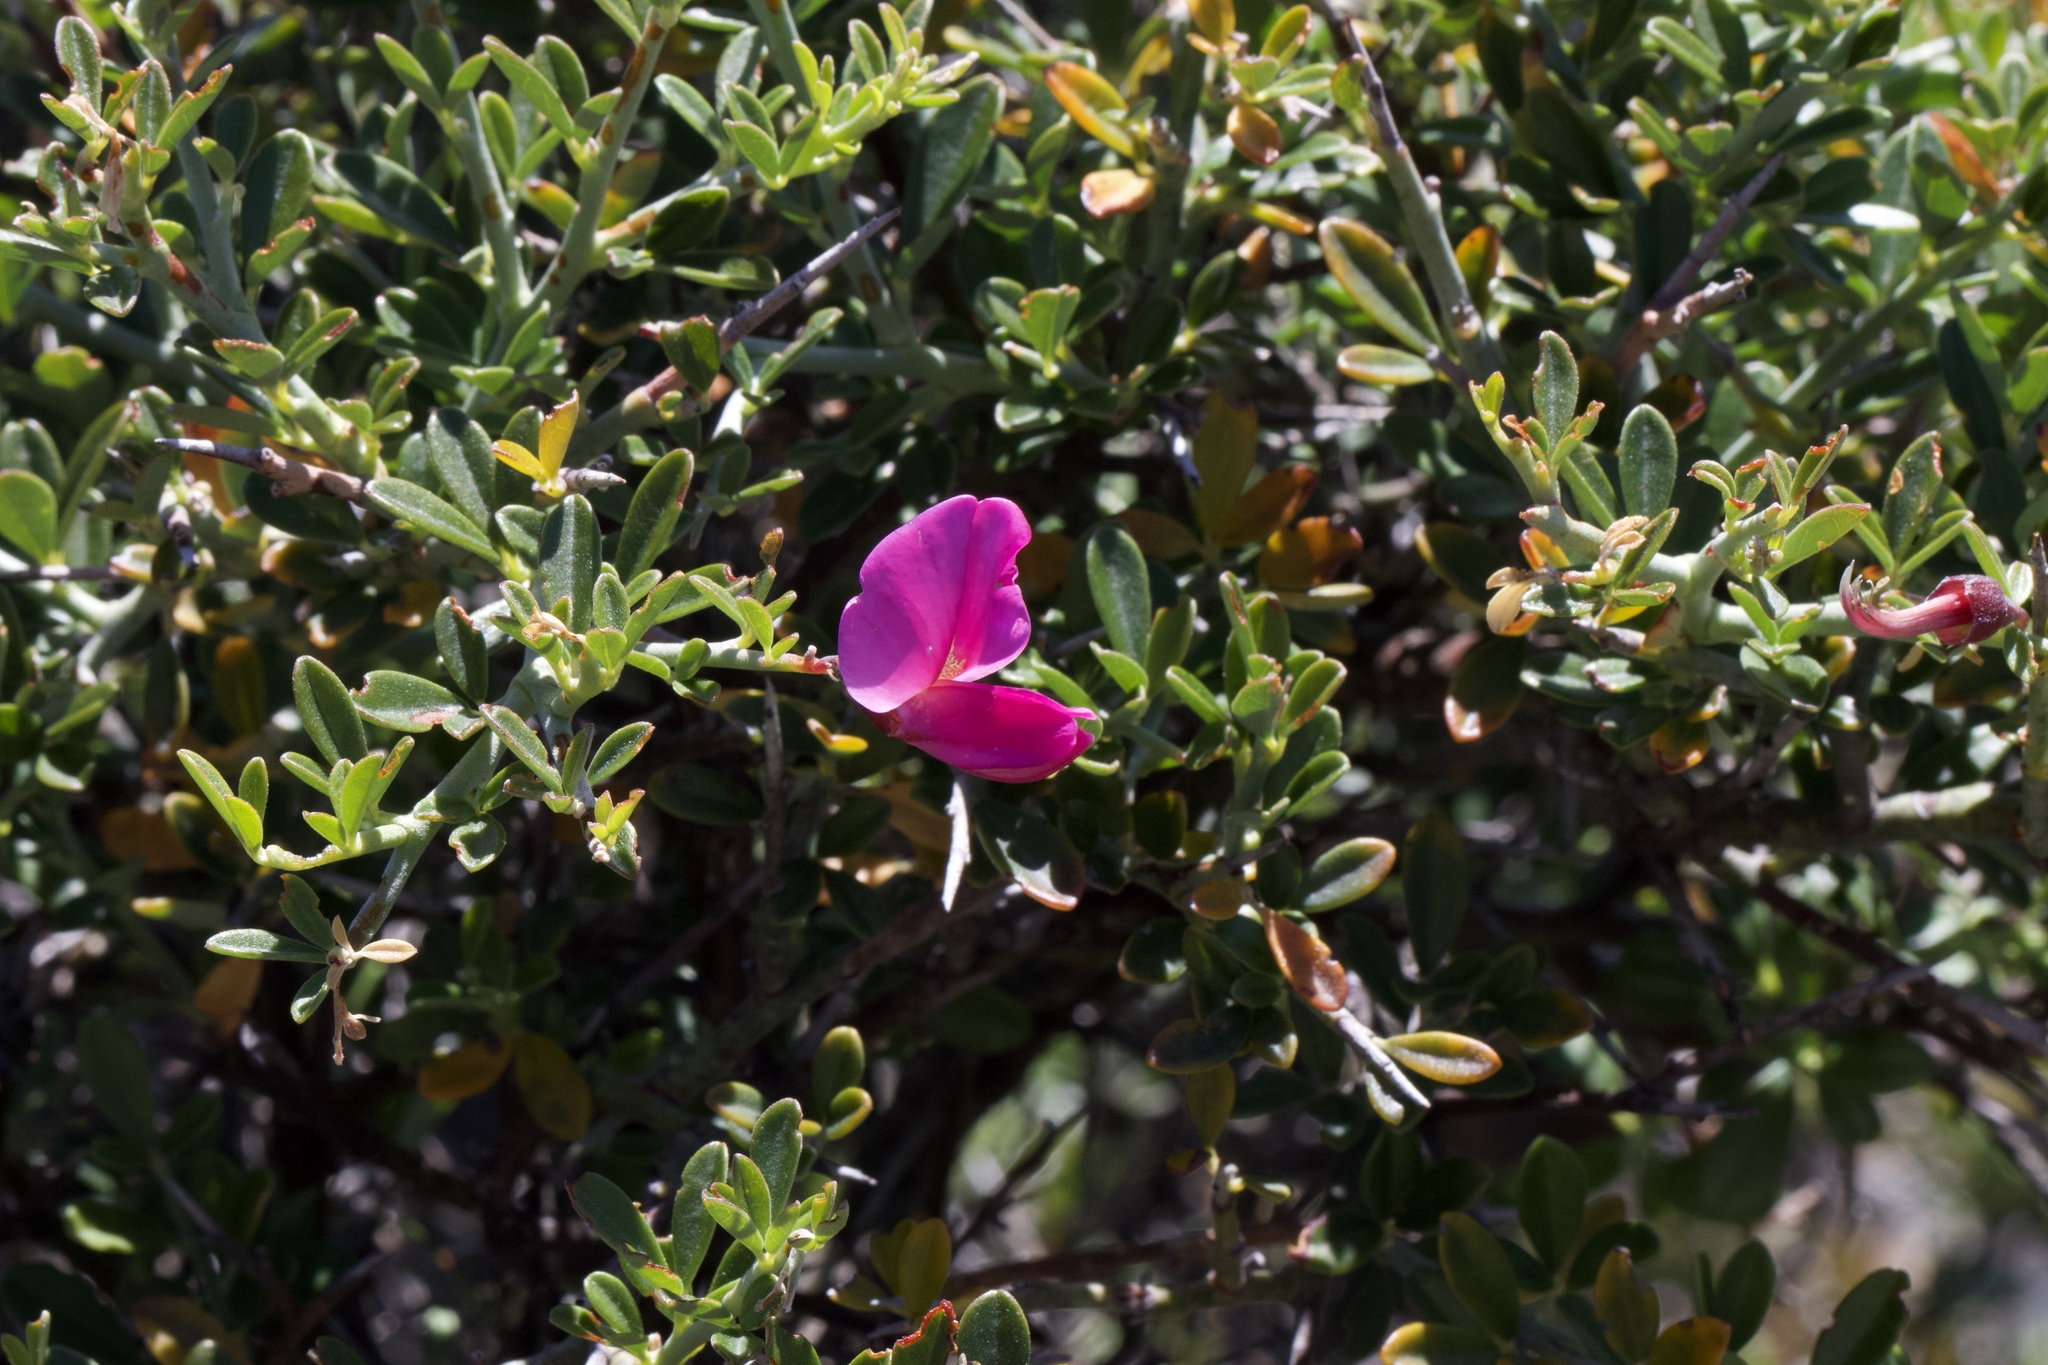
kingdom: Plantae
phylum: Tracheophyta
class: Magnoliopsida
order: Fabales
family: Fabaceae
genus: Pickeringia
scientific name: Pickeringia montana
